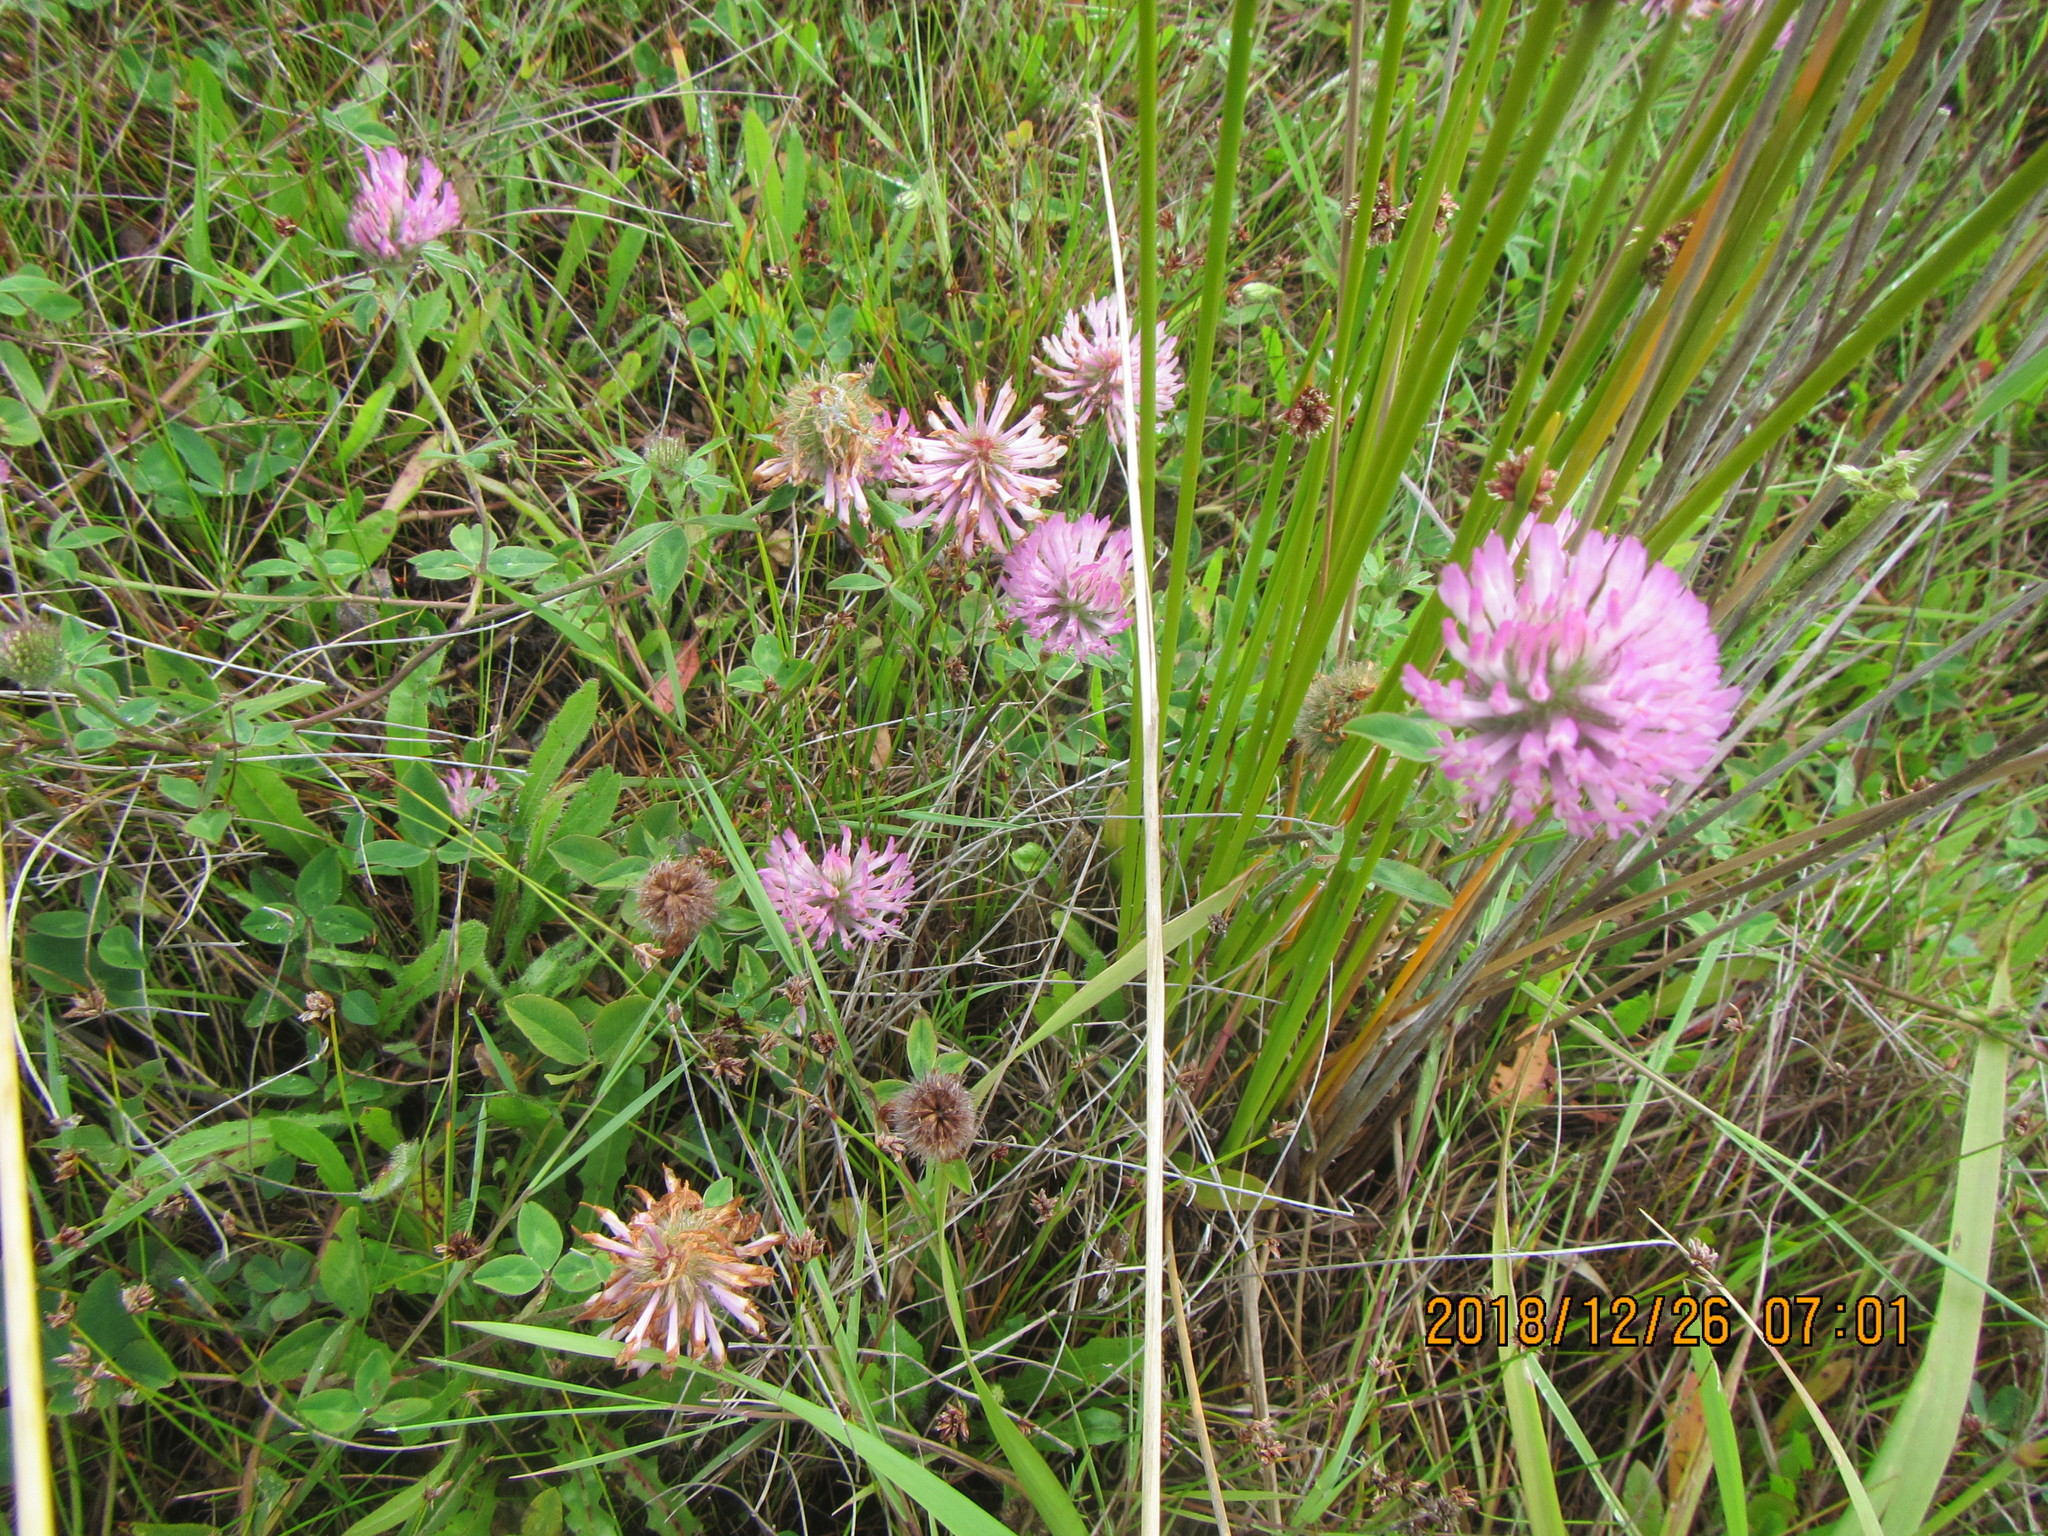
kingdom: Plantae
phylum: Tracheophyta
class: Magnoliopsida
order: Fabales
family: Fabaceae
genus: Trifolium
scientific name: Trifolium pratense
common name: Red clover
